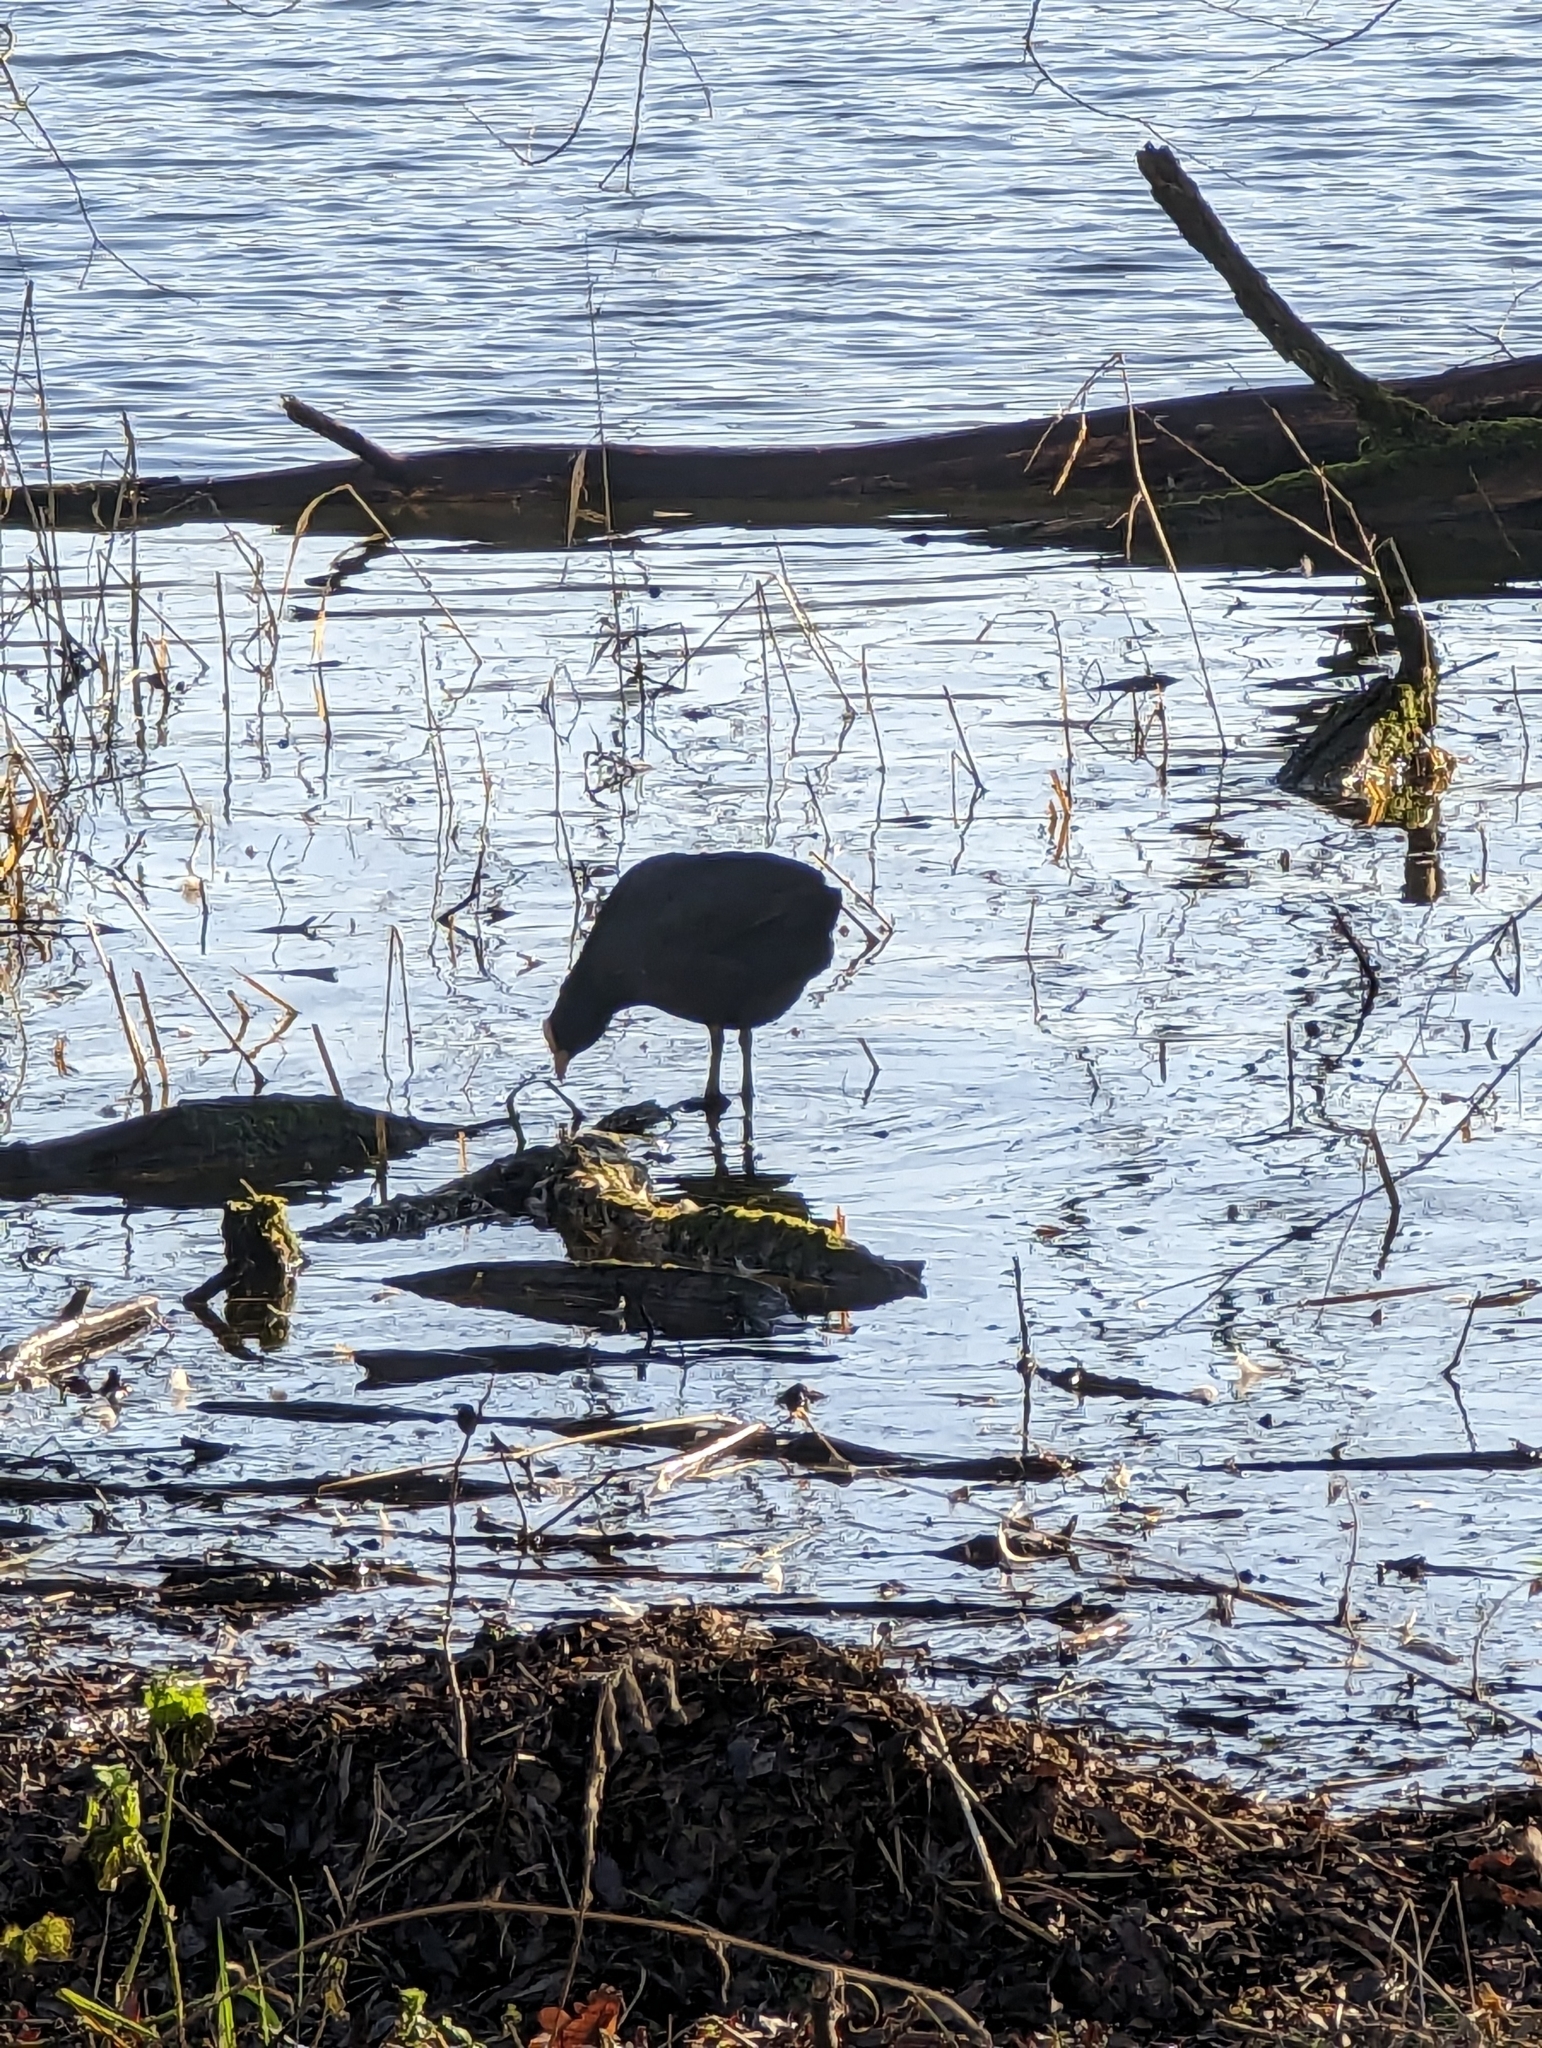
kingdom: Animalia
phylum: Chordata
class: Aves
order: Gruiformes
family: Rallidae
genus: Fulica
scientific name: Fulica atra
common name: Eurasian coot
